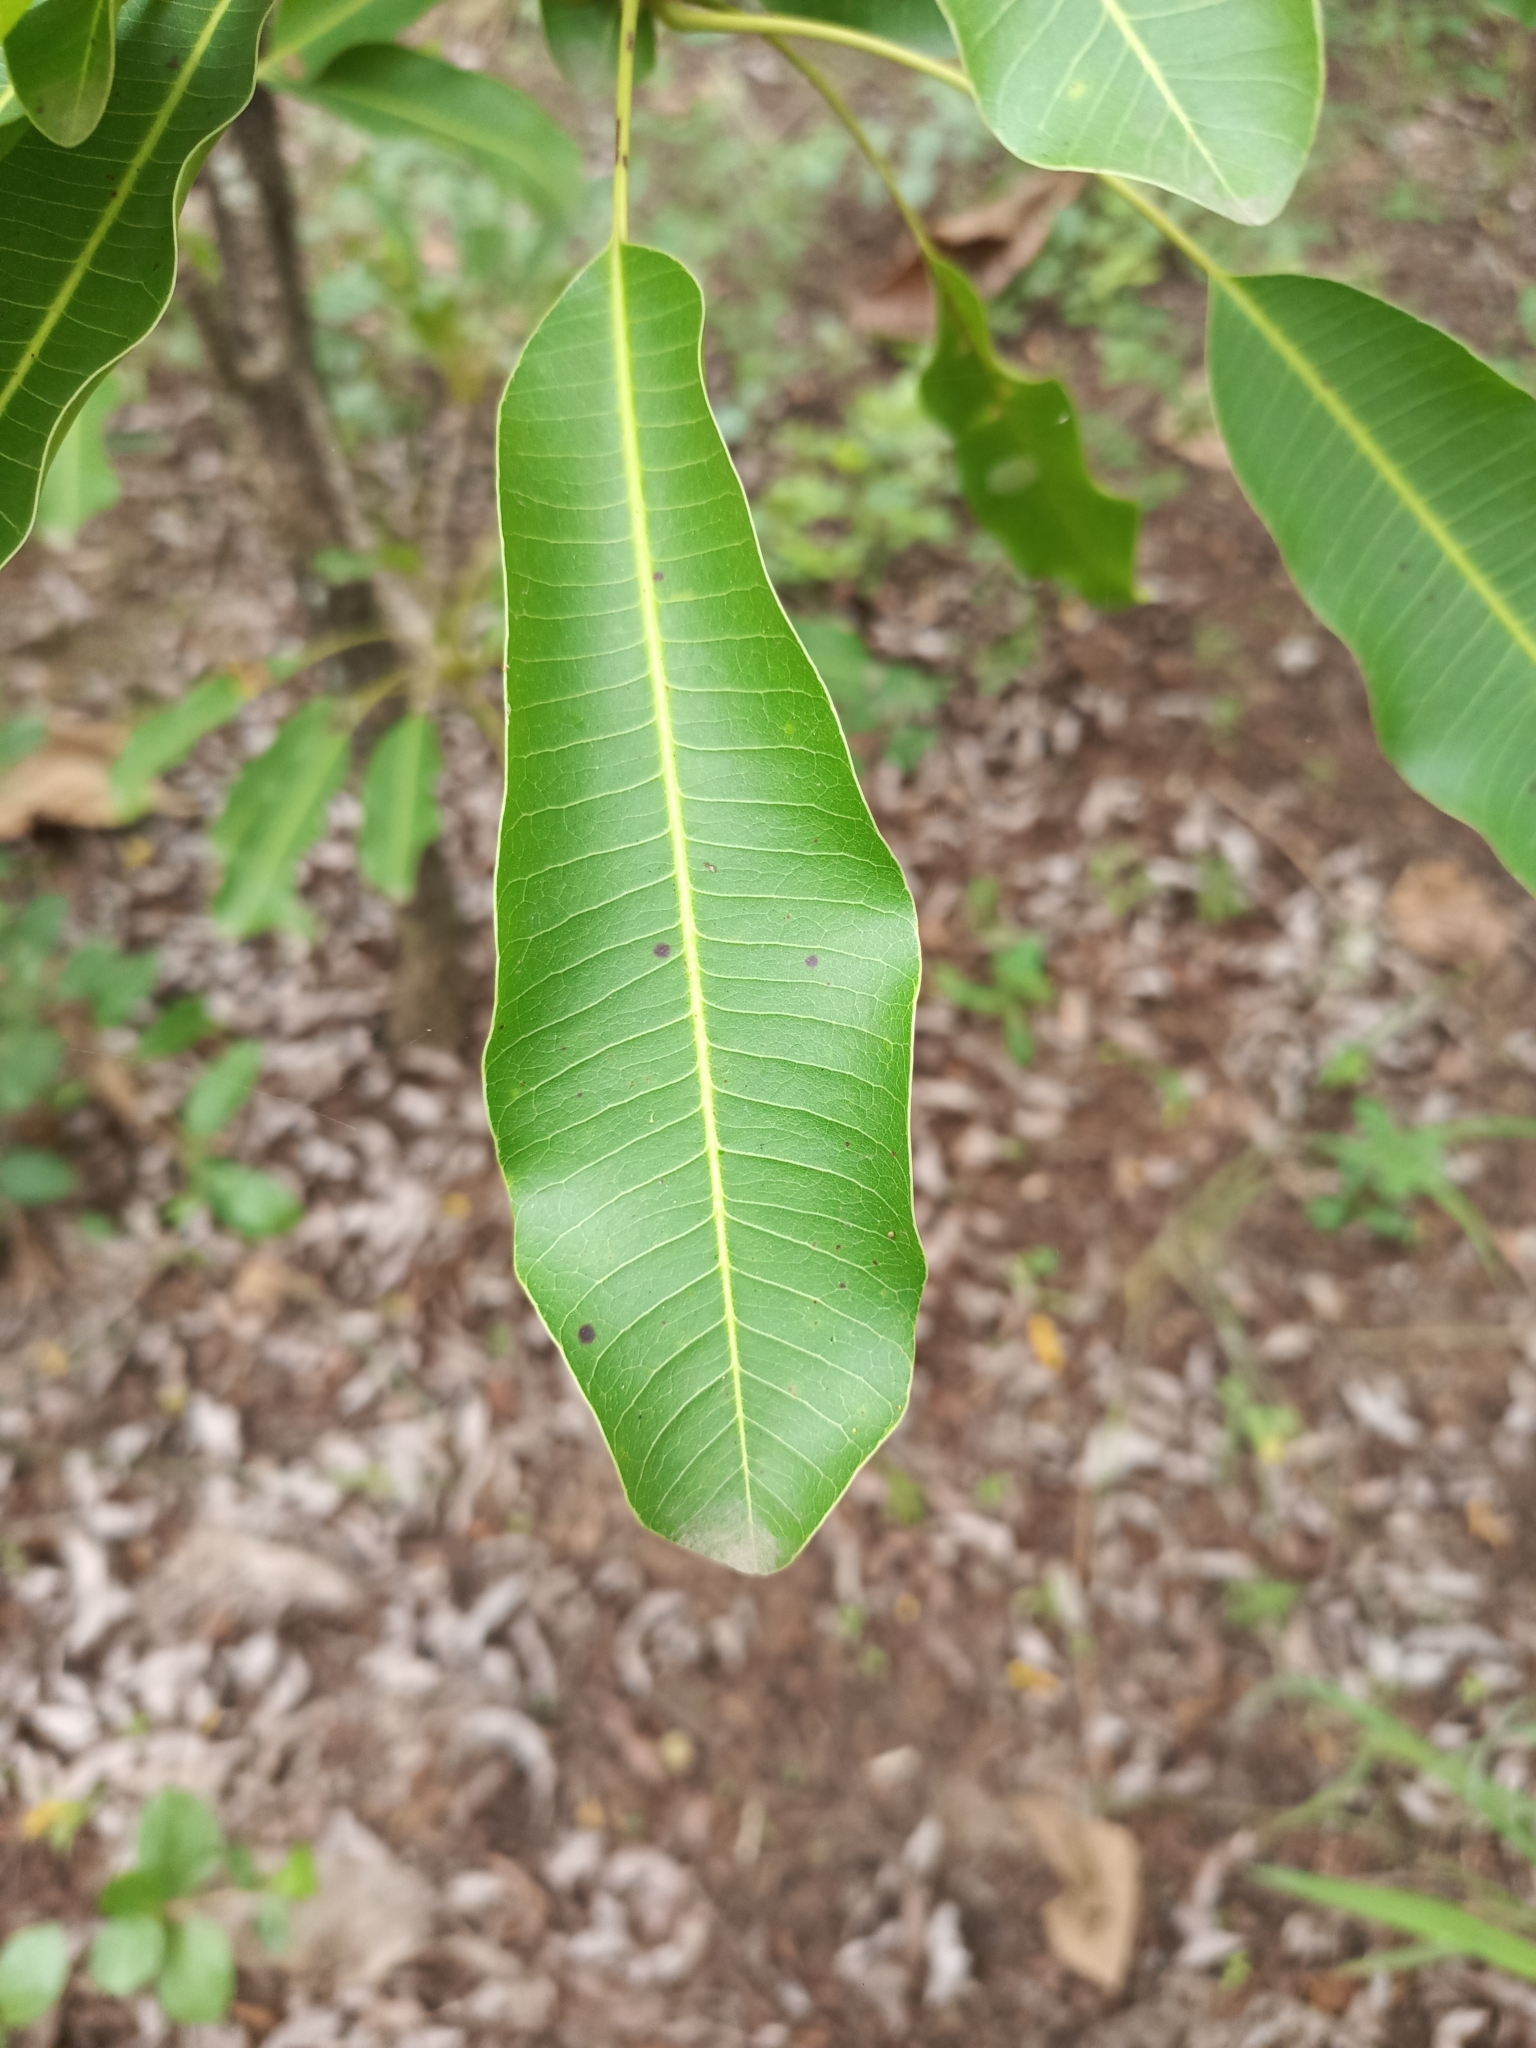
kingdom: Plantae
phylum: Tracheophyta
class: Magnoliopsida
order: Ericales
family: Sapotaceae
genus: Vitellaria
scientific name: Vitellaria paradoxa
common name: Shea butter tree
